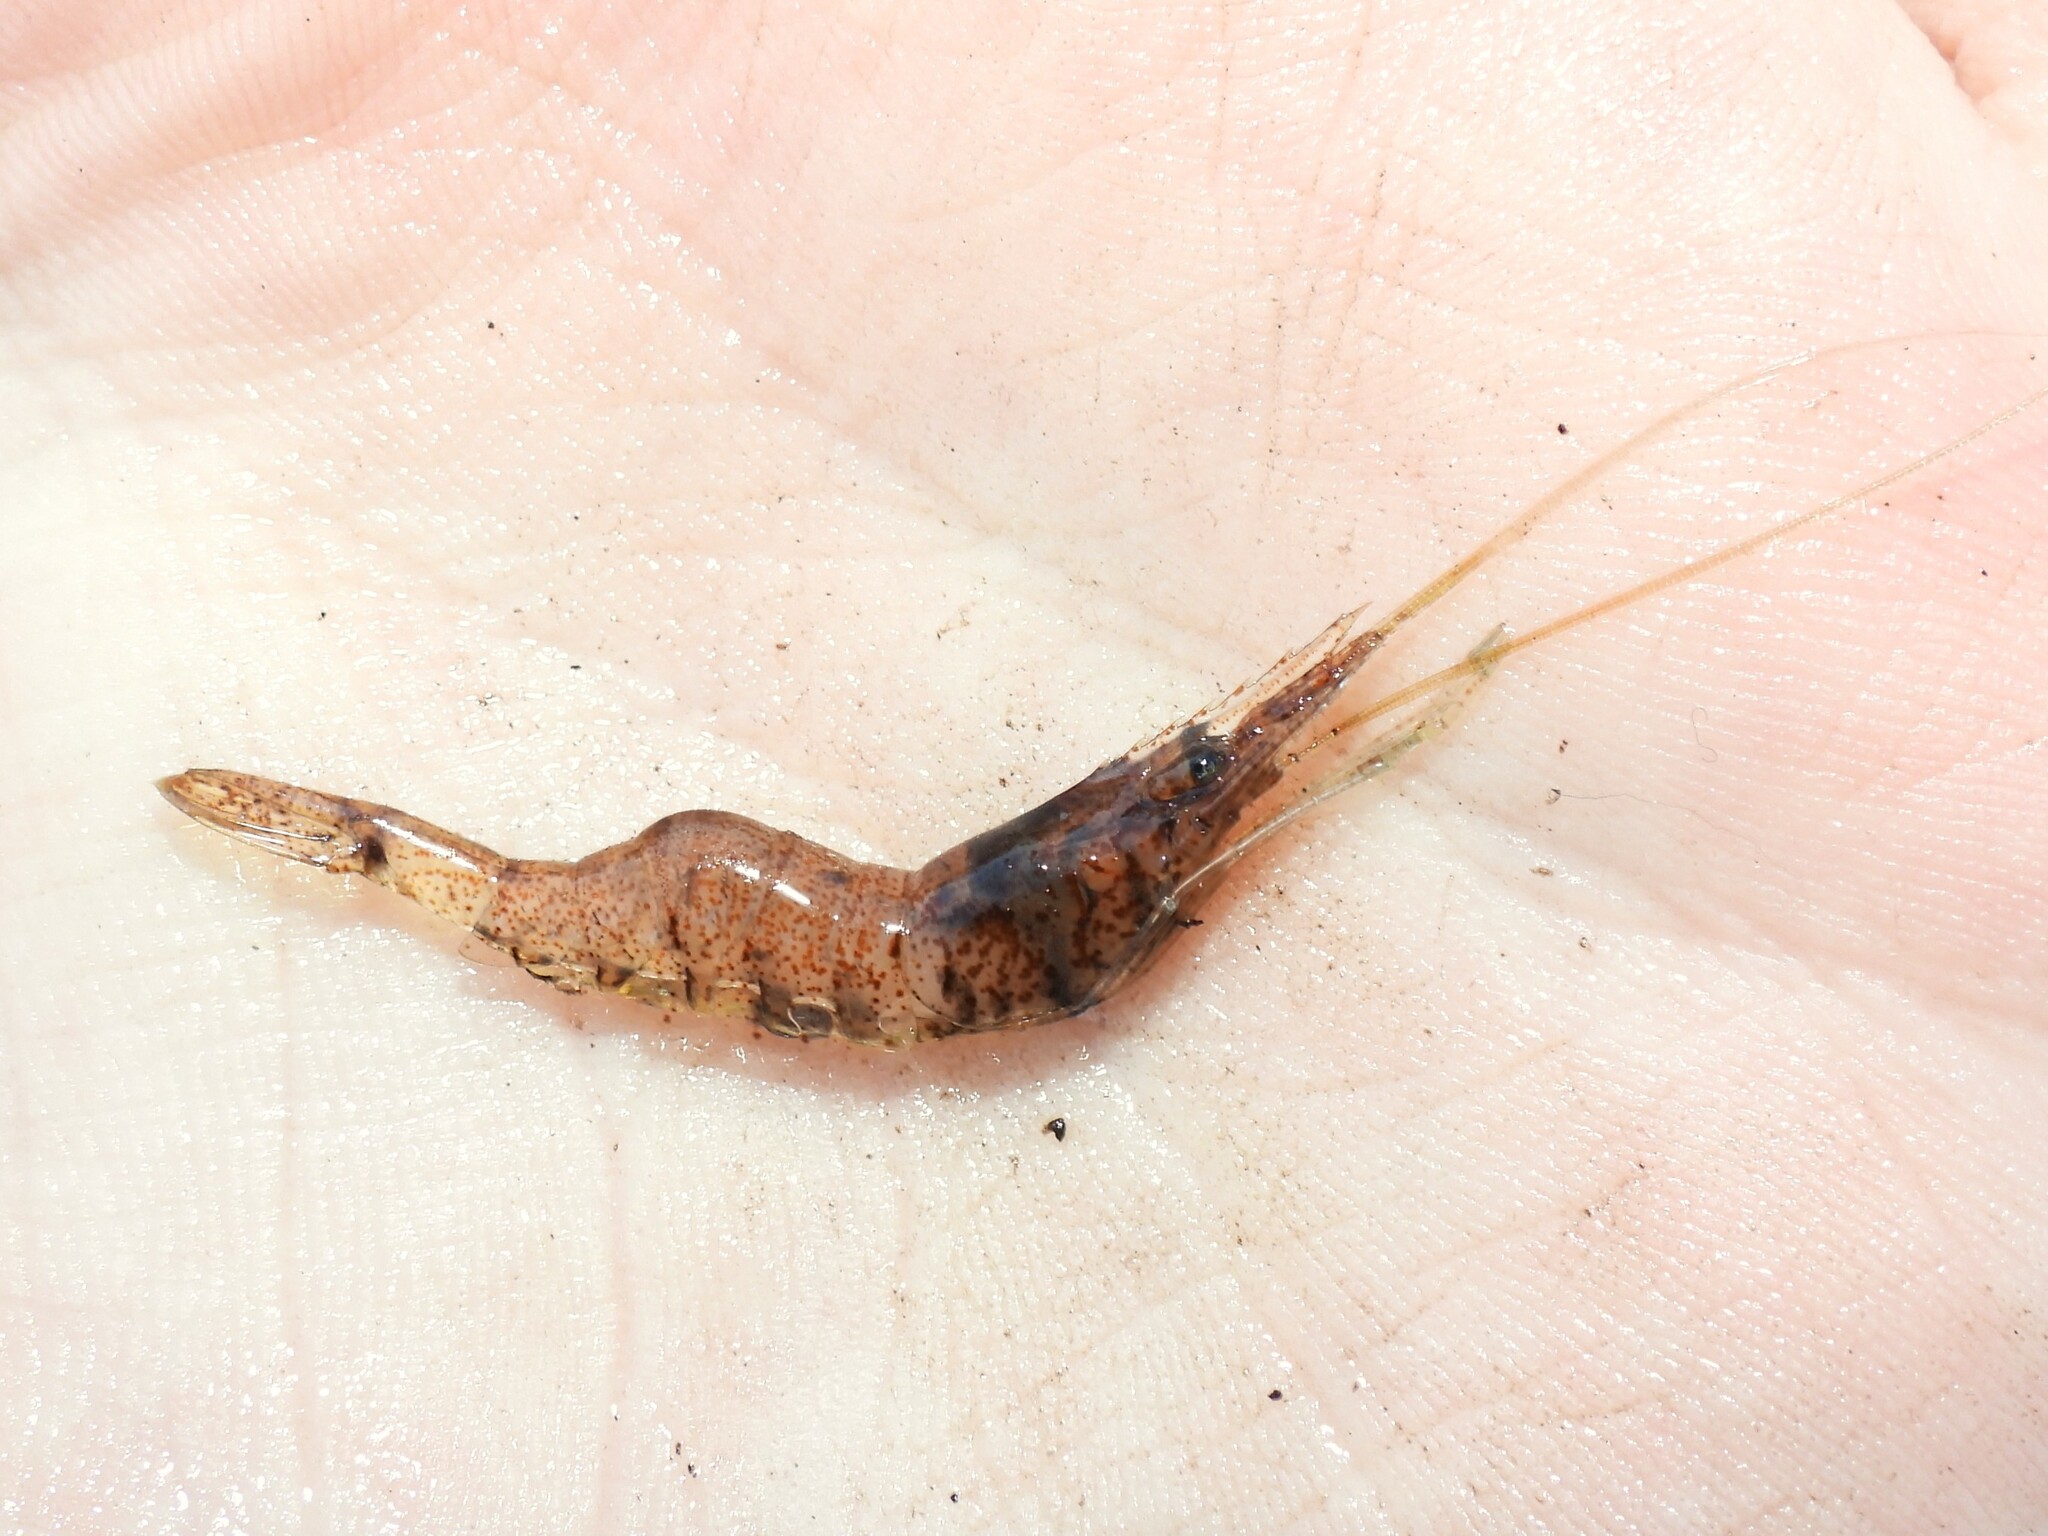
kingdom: Animalia
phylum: Arthropoda
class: Malacostraca
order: Decapoda
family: Palaemonidae
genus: Palaemon
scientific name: Palaemon paludosus
